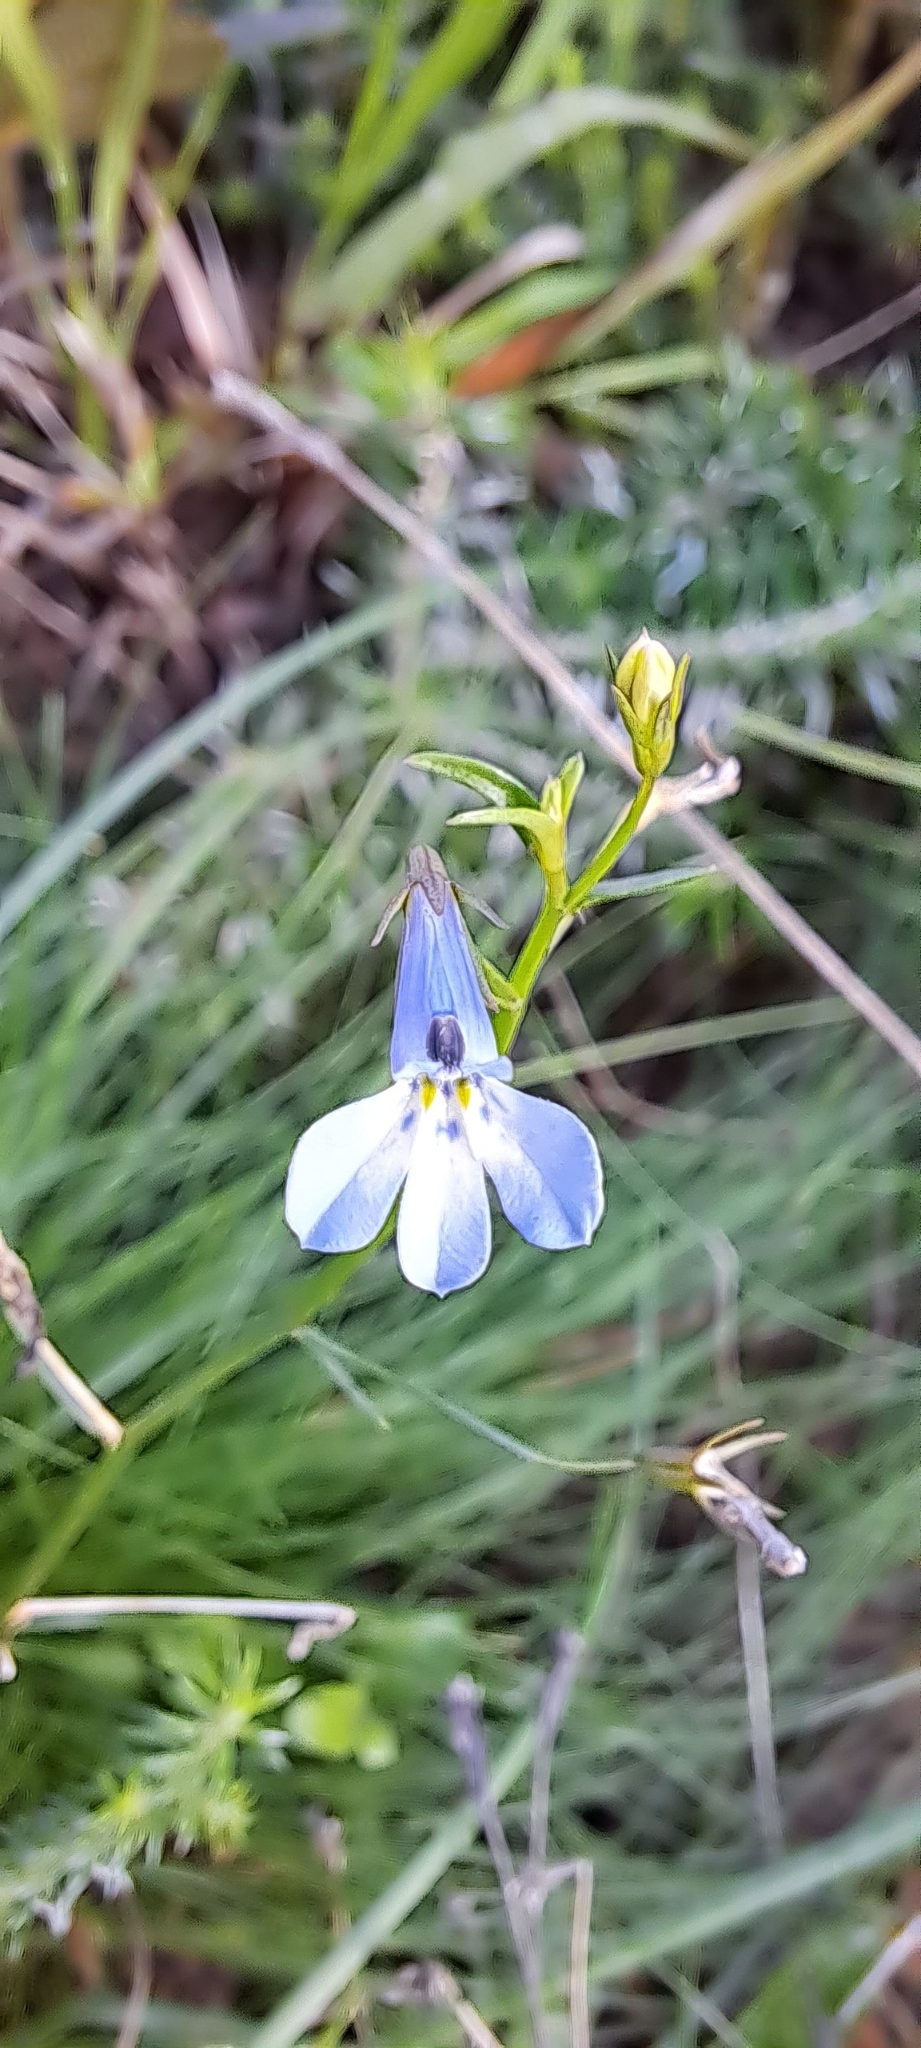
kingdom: Plantae
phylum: Tracheophyta
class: Magnoliopsida
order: Asterales
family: Campanulaceae
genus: Lobelia
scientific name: Lobelia erinus
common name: Edging lobelia
